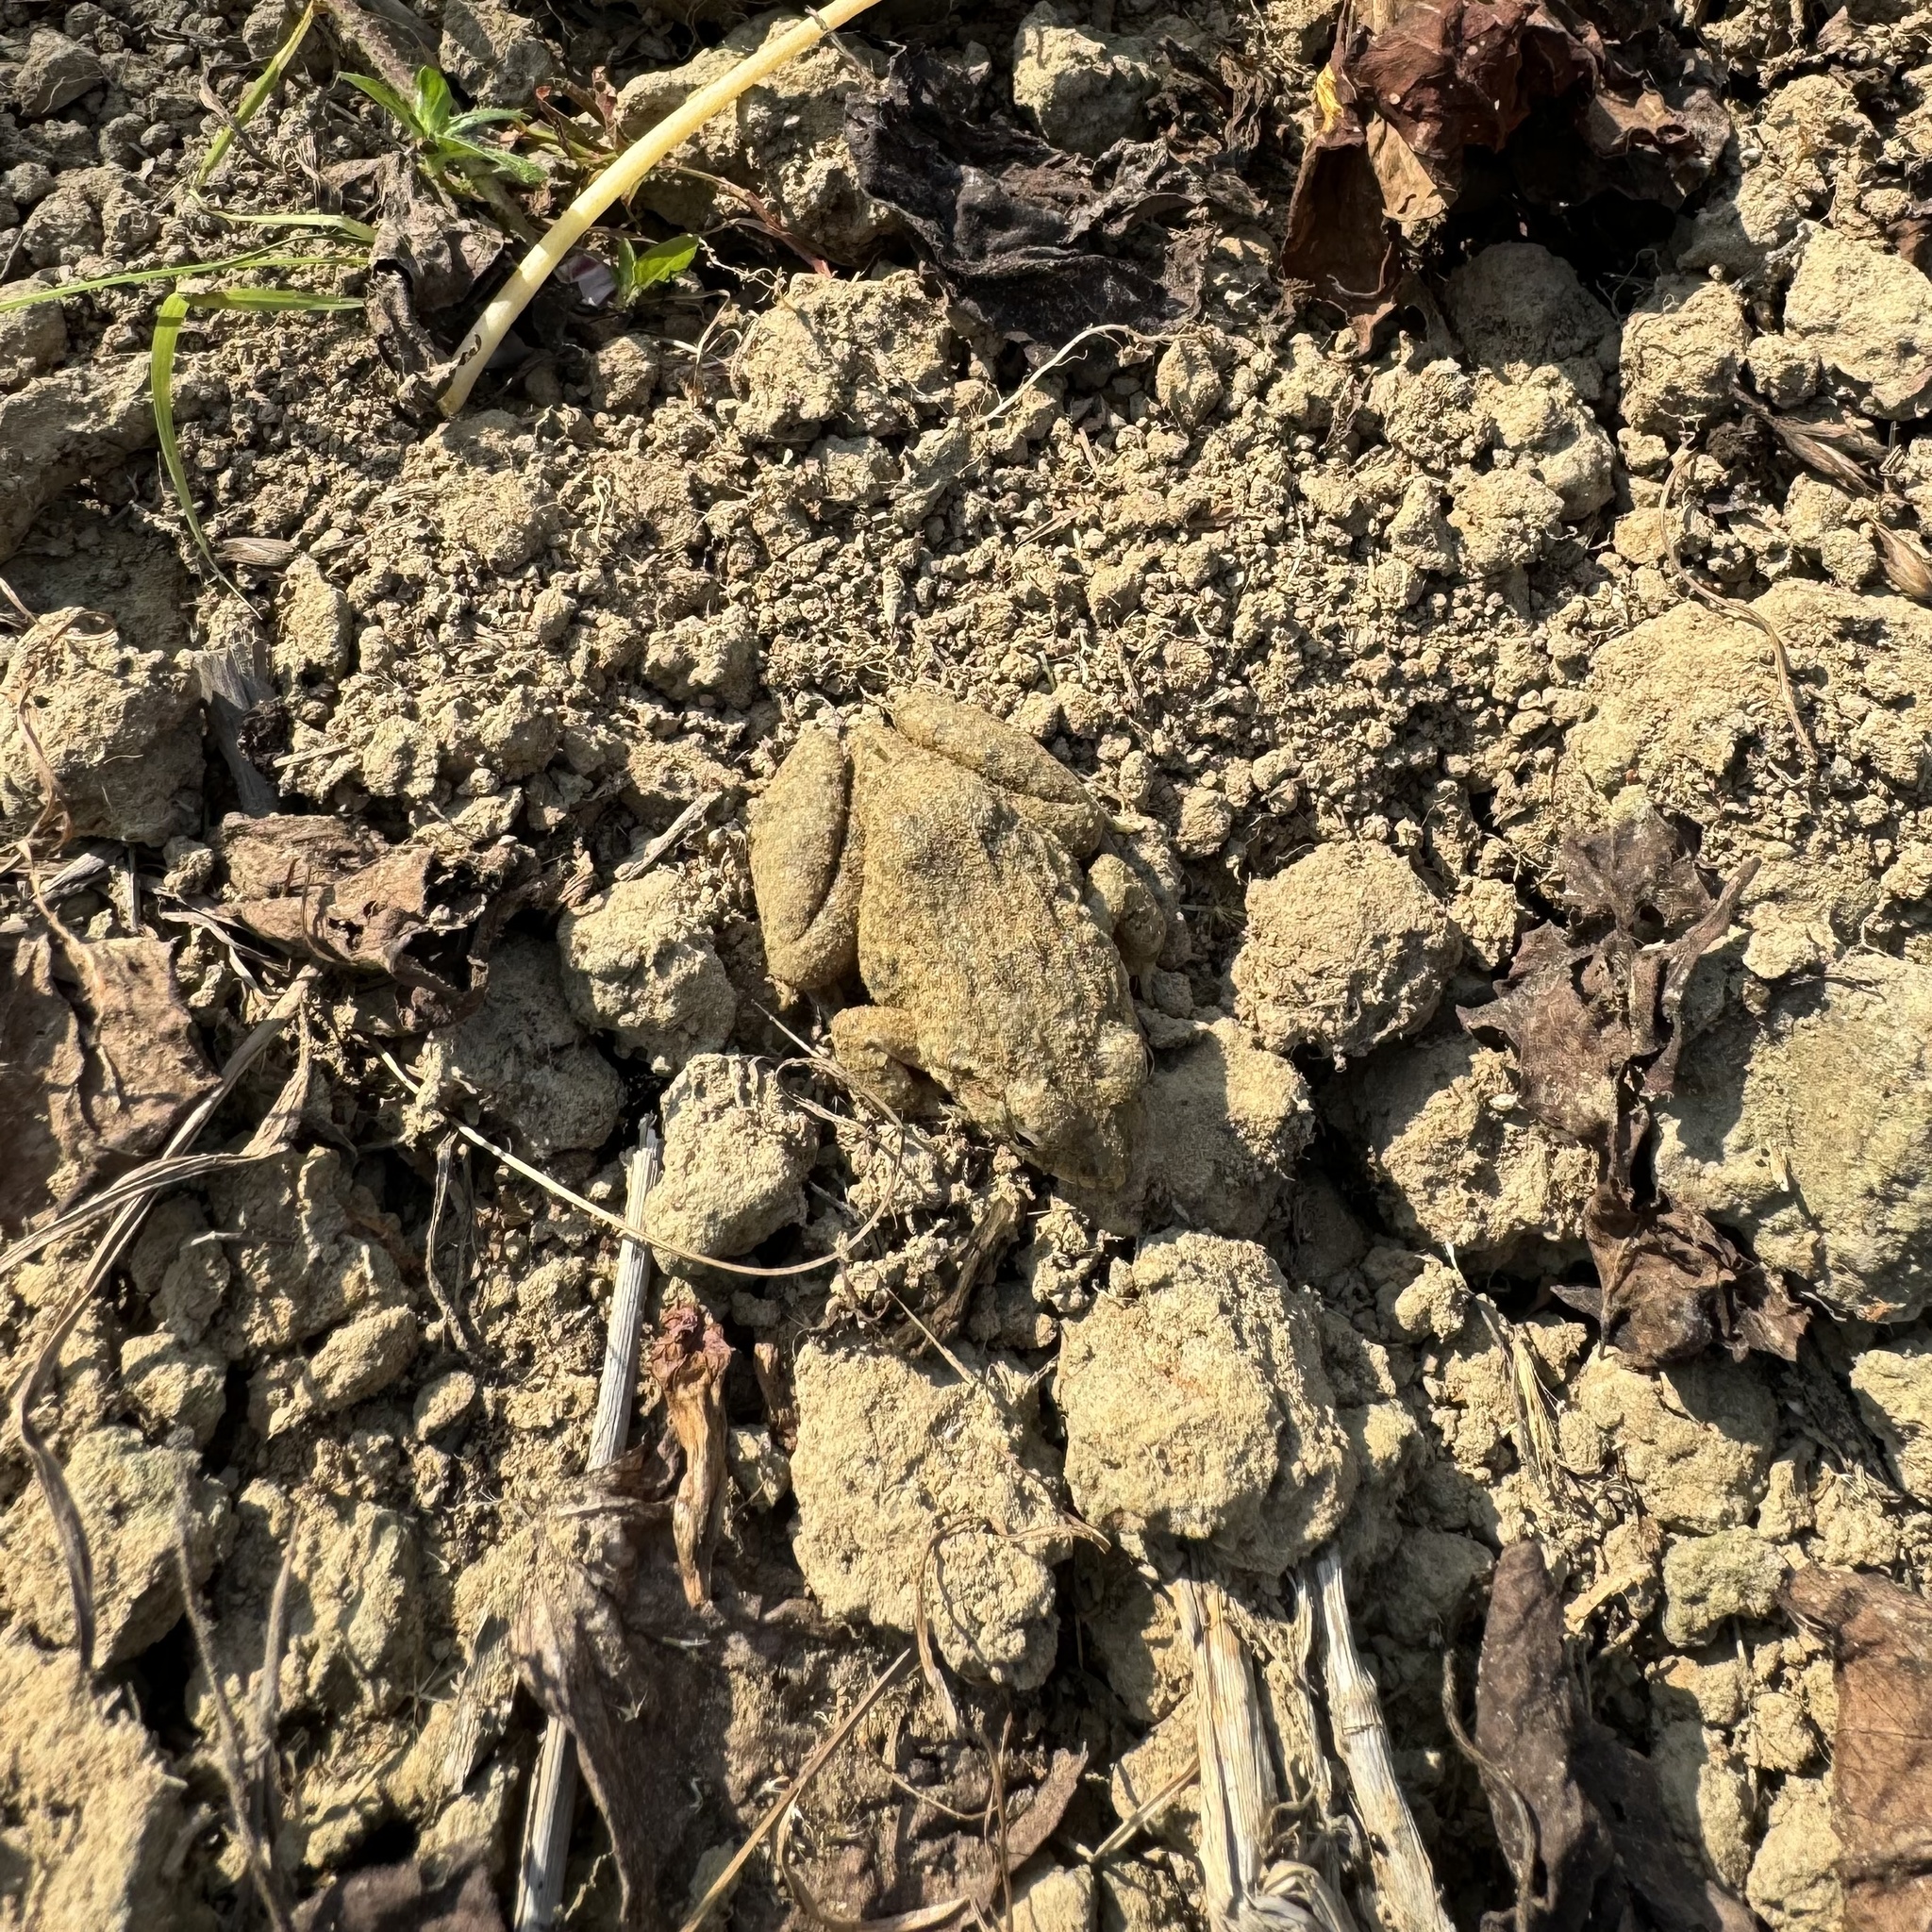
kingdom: Animalia
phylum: Chordata
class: Amphibia
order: Anura
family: Dicroglossidae
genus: Fejervarya
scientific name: Fejervarya limnocharis
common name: Asian grass frog/common pond frog/field frog/grass frog/indian rice frog
